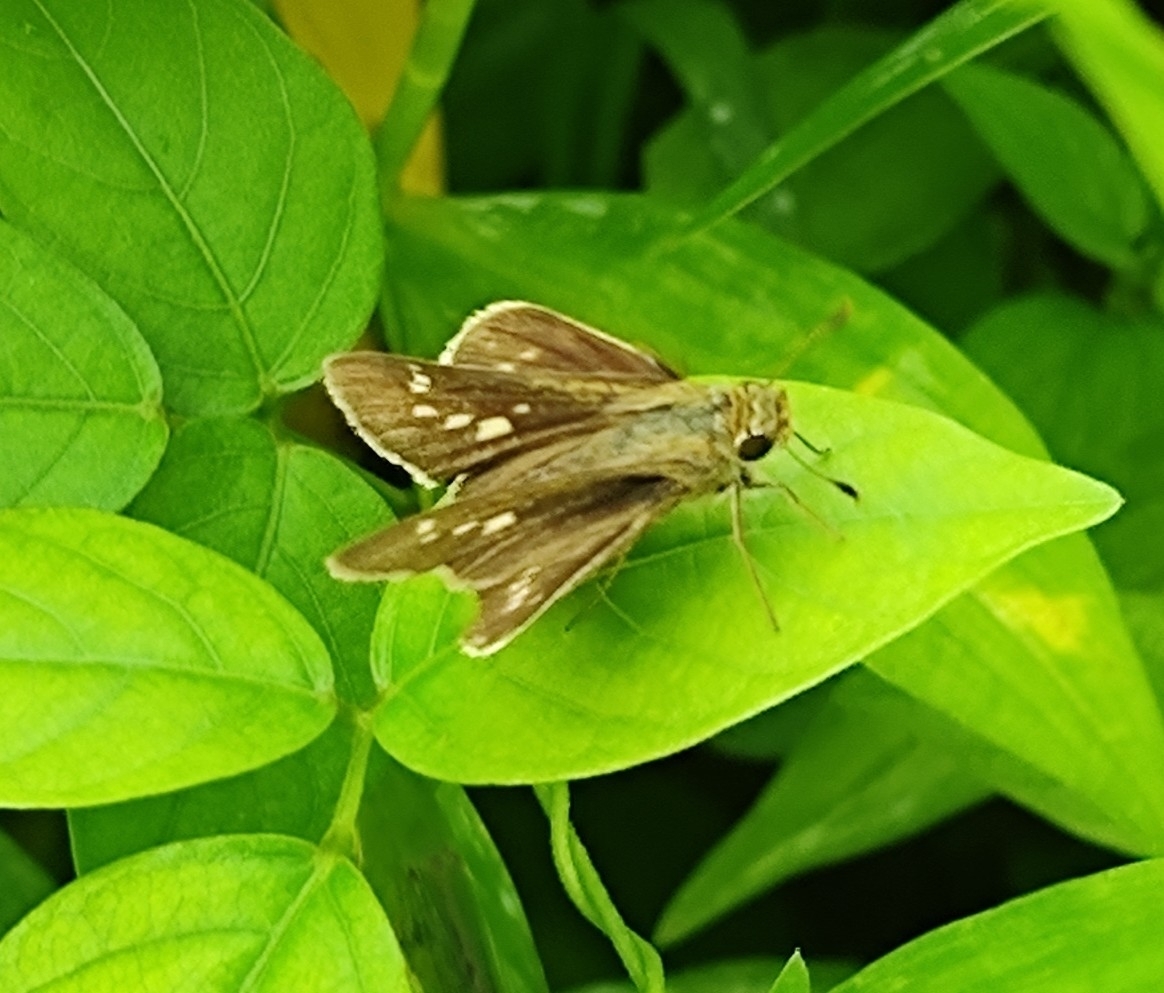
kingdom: Animalia
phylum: Arthropoda
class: Insecta
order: Lepidoptera
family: Hesperiidae
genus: Parnara
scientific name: Parnara naso
